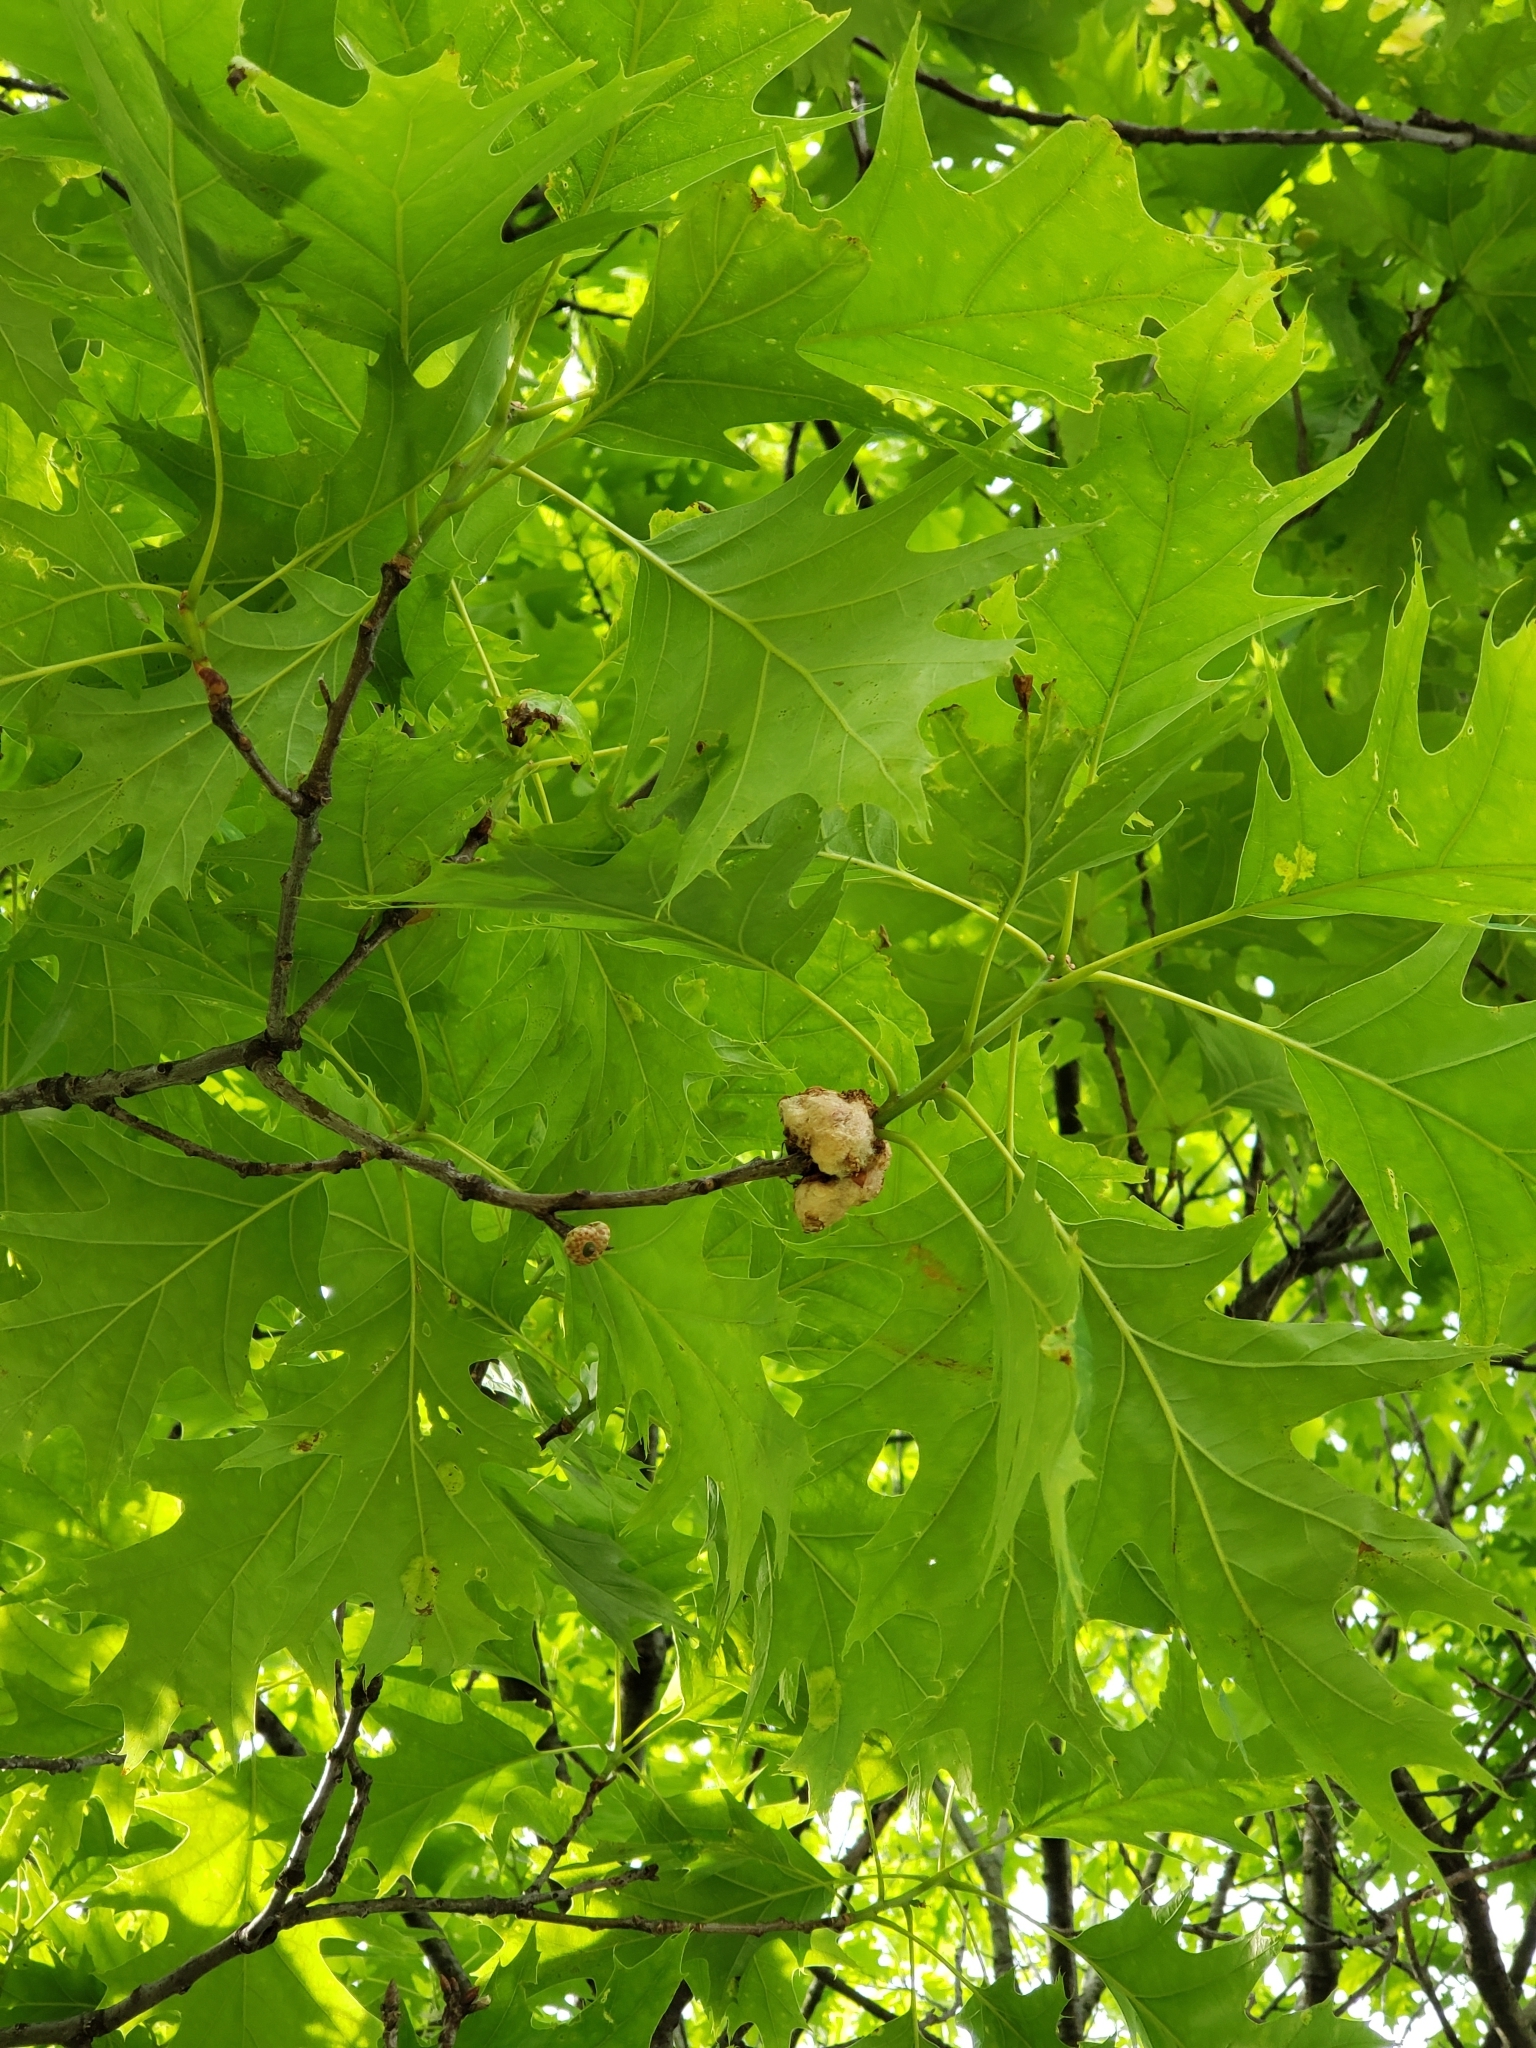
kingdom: Animalia
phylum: Arthropoda
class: Insecta
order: Hymenoptera
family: Cynipidae
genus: Callirhytis
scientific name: Callirhytis
